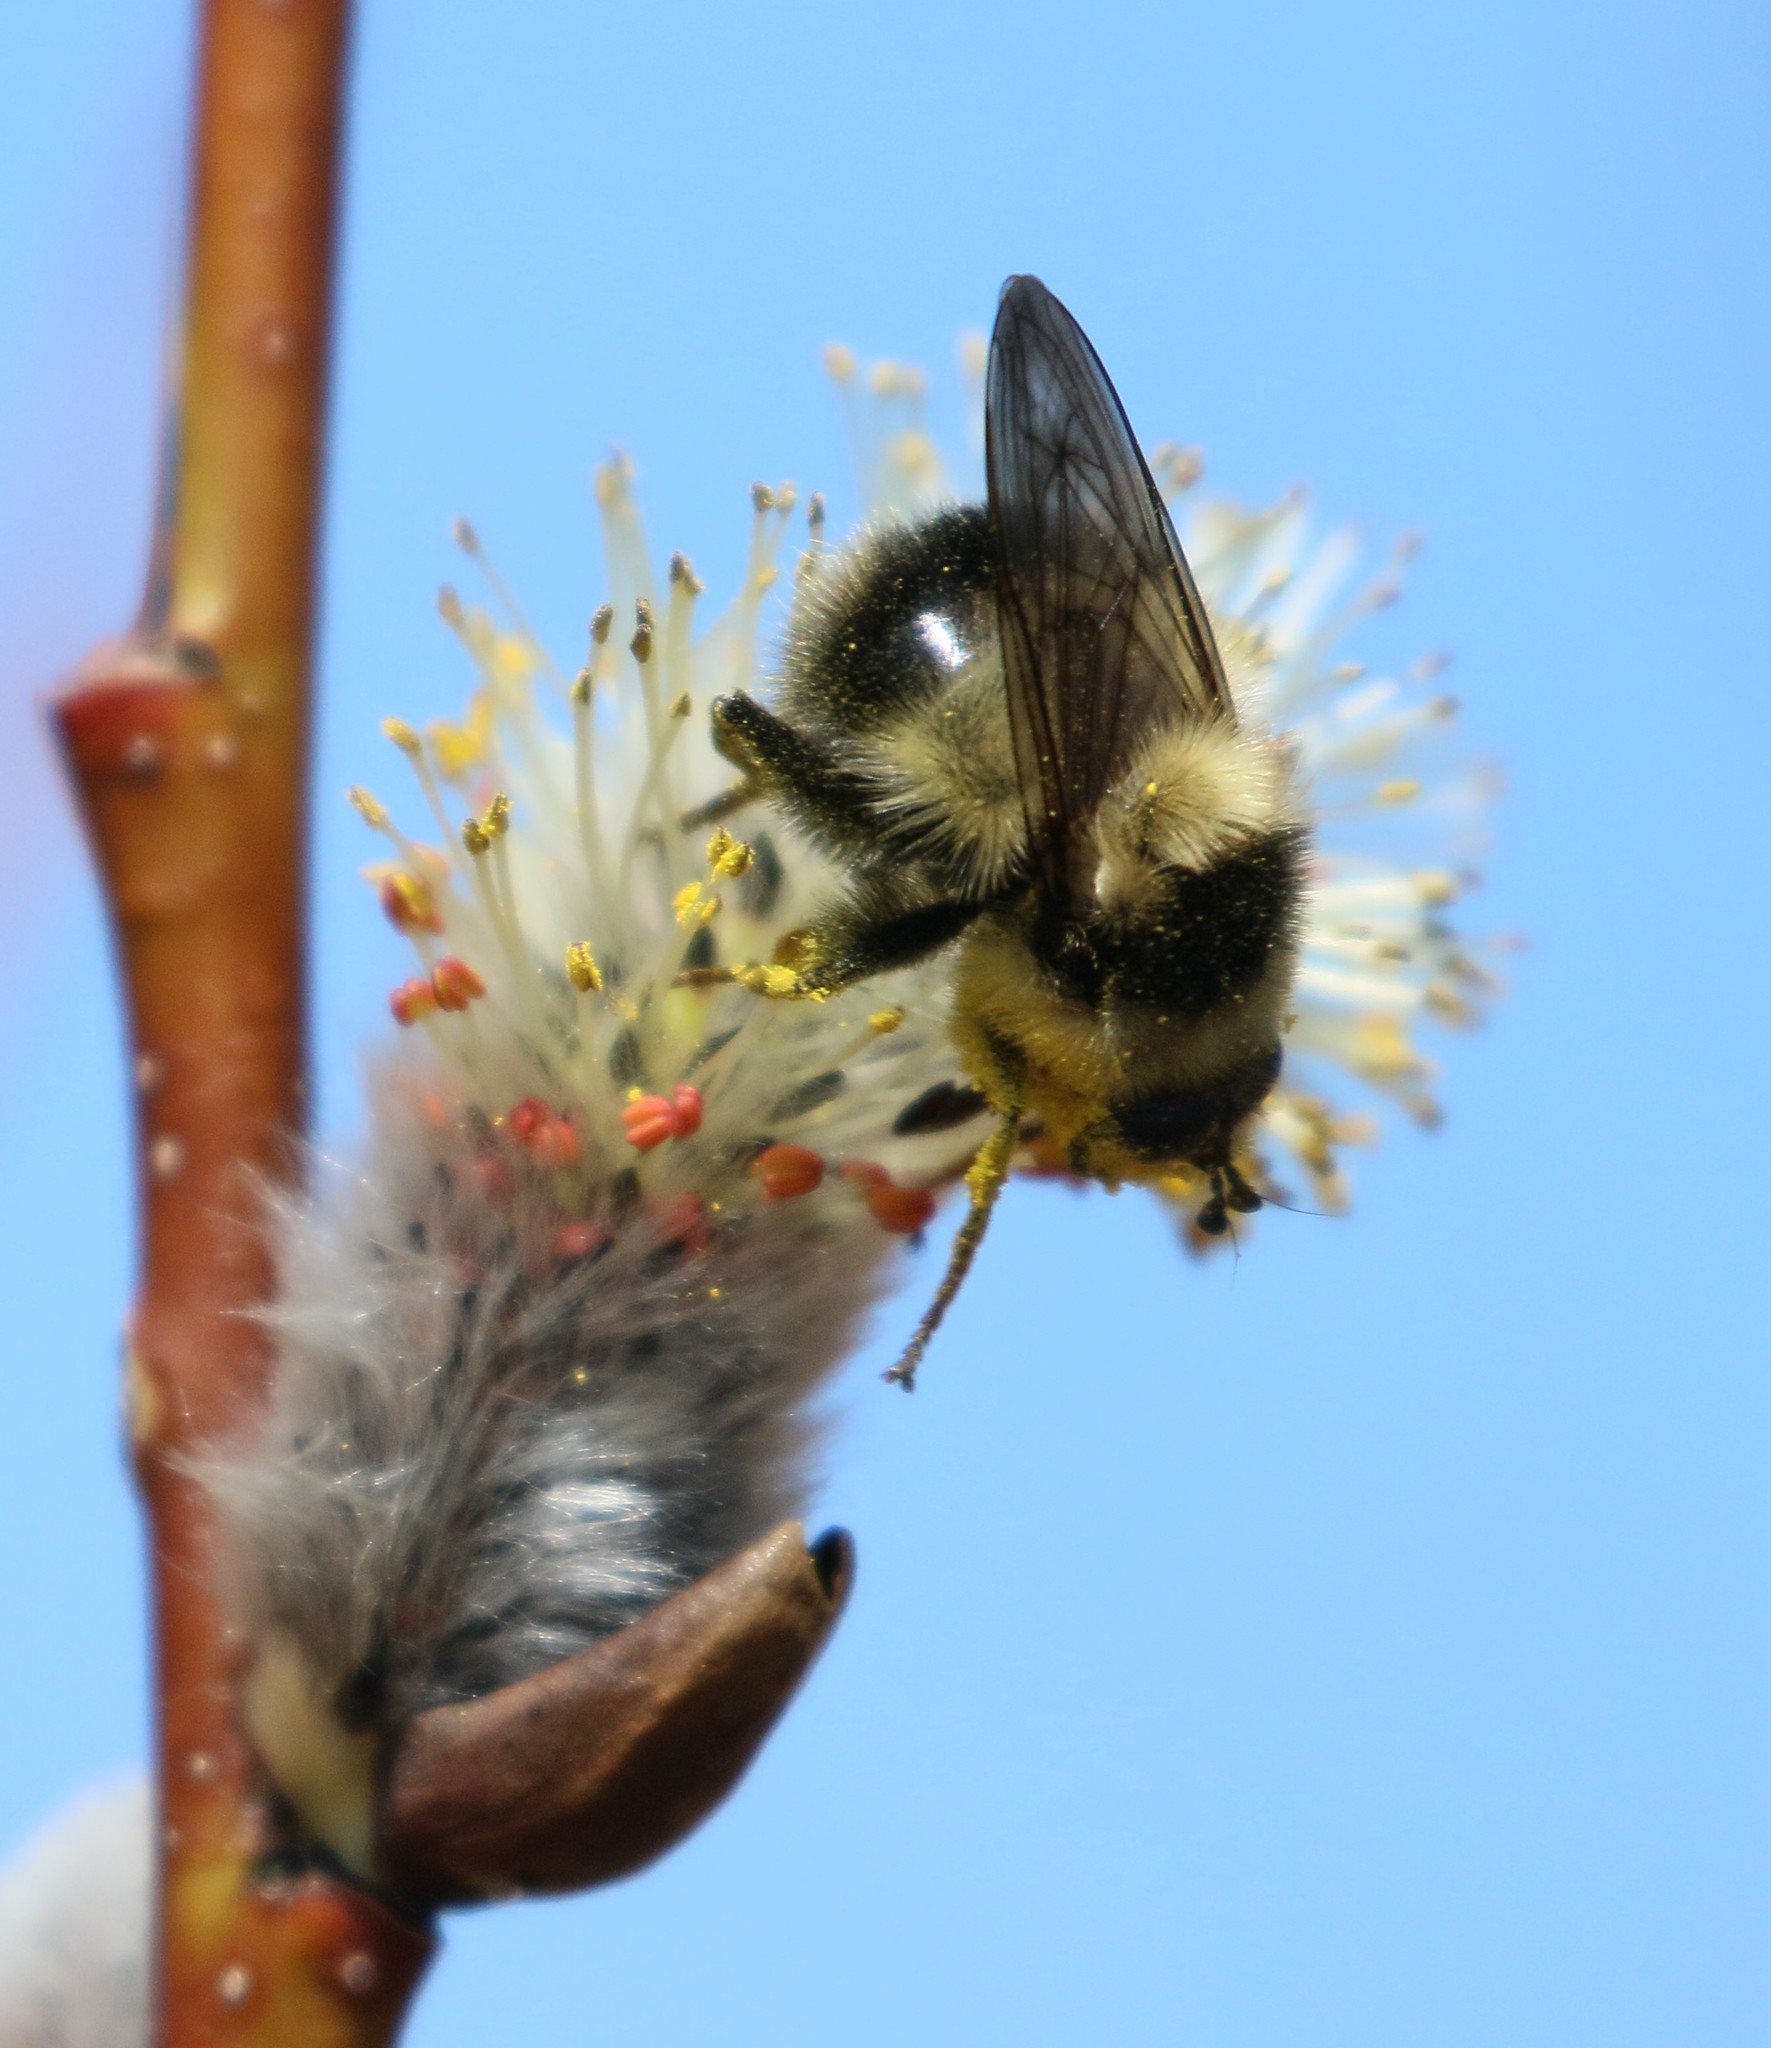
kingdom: Animalia
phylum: Arthropoda
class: Insecta
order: Diptera
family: Syrphidae
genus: Criorhina
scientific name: Criorhina nigriventris
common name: Bare-cheeked bumble fly
